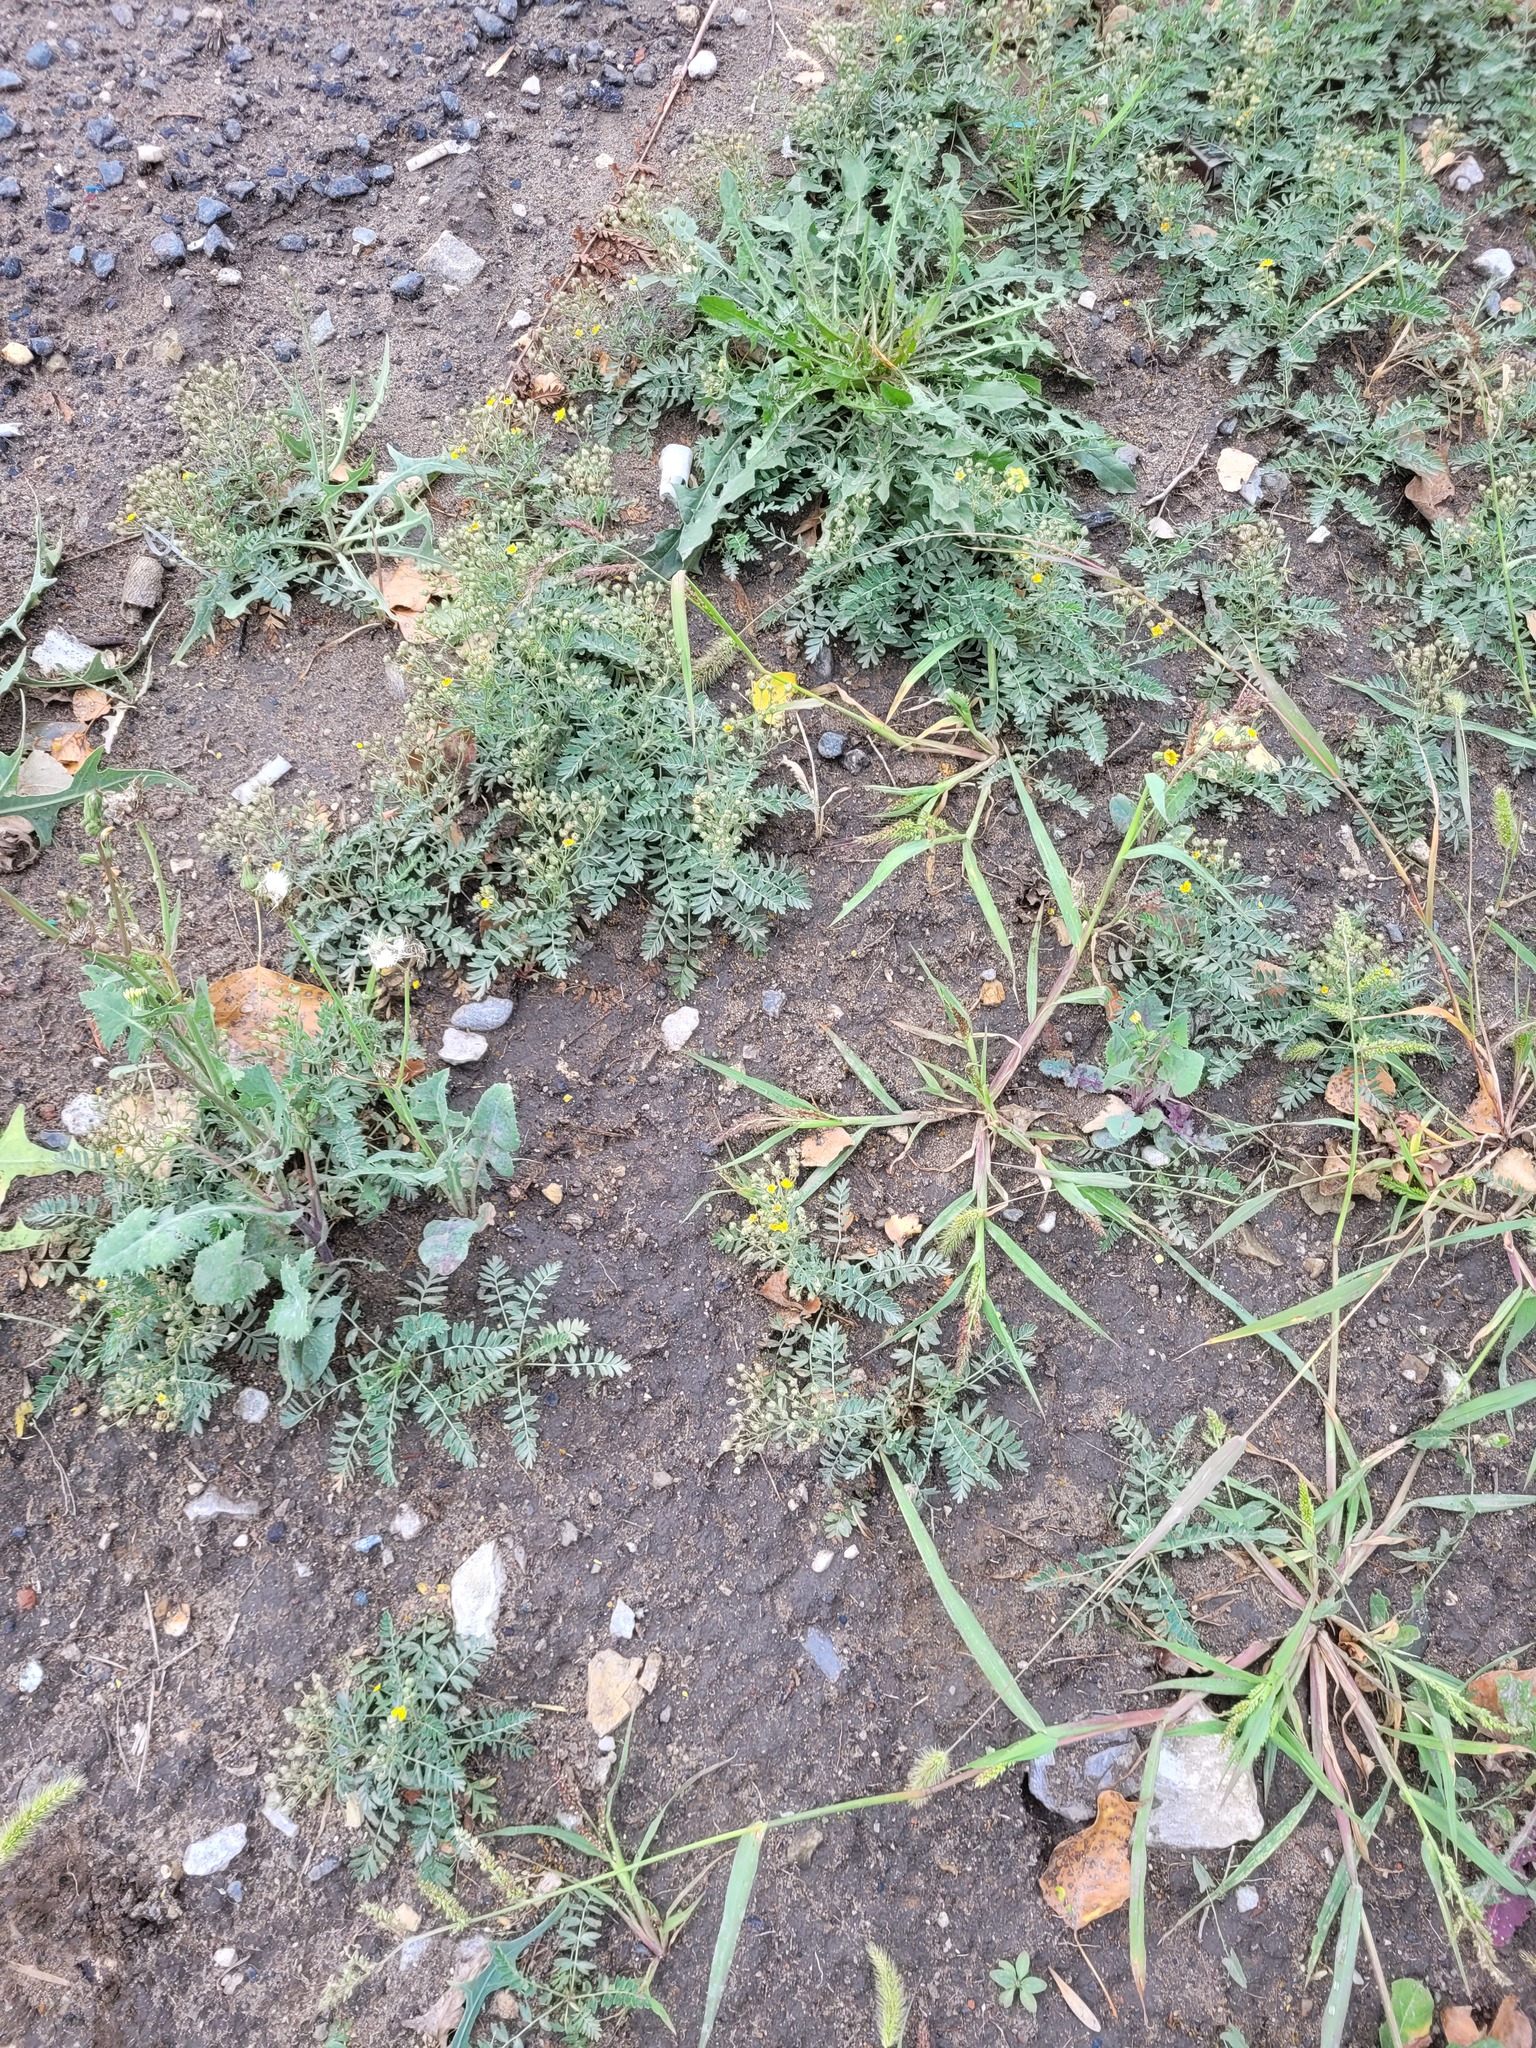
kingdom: Plantae
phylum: Tracheophyta
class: Magnoliopsida
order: Rosales
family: Rosaceae
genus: Sibbaldianthe
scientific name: Sibbaldianthe bifurca
